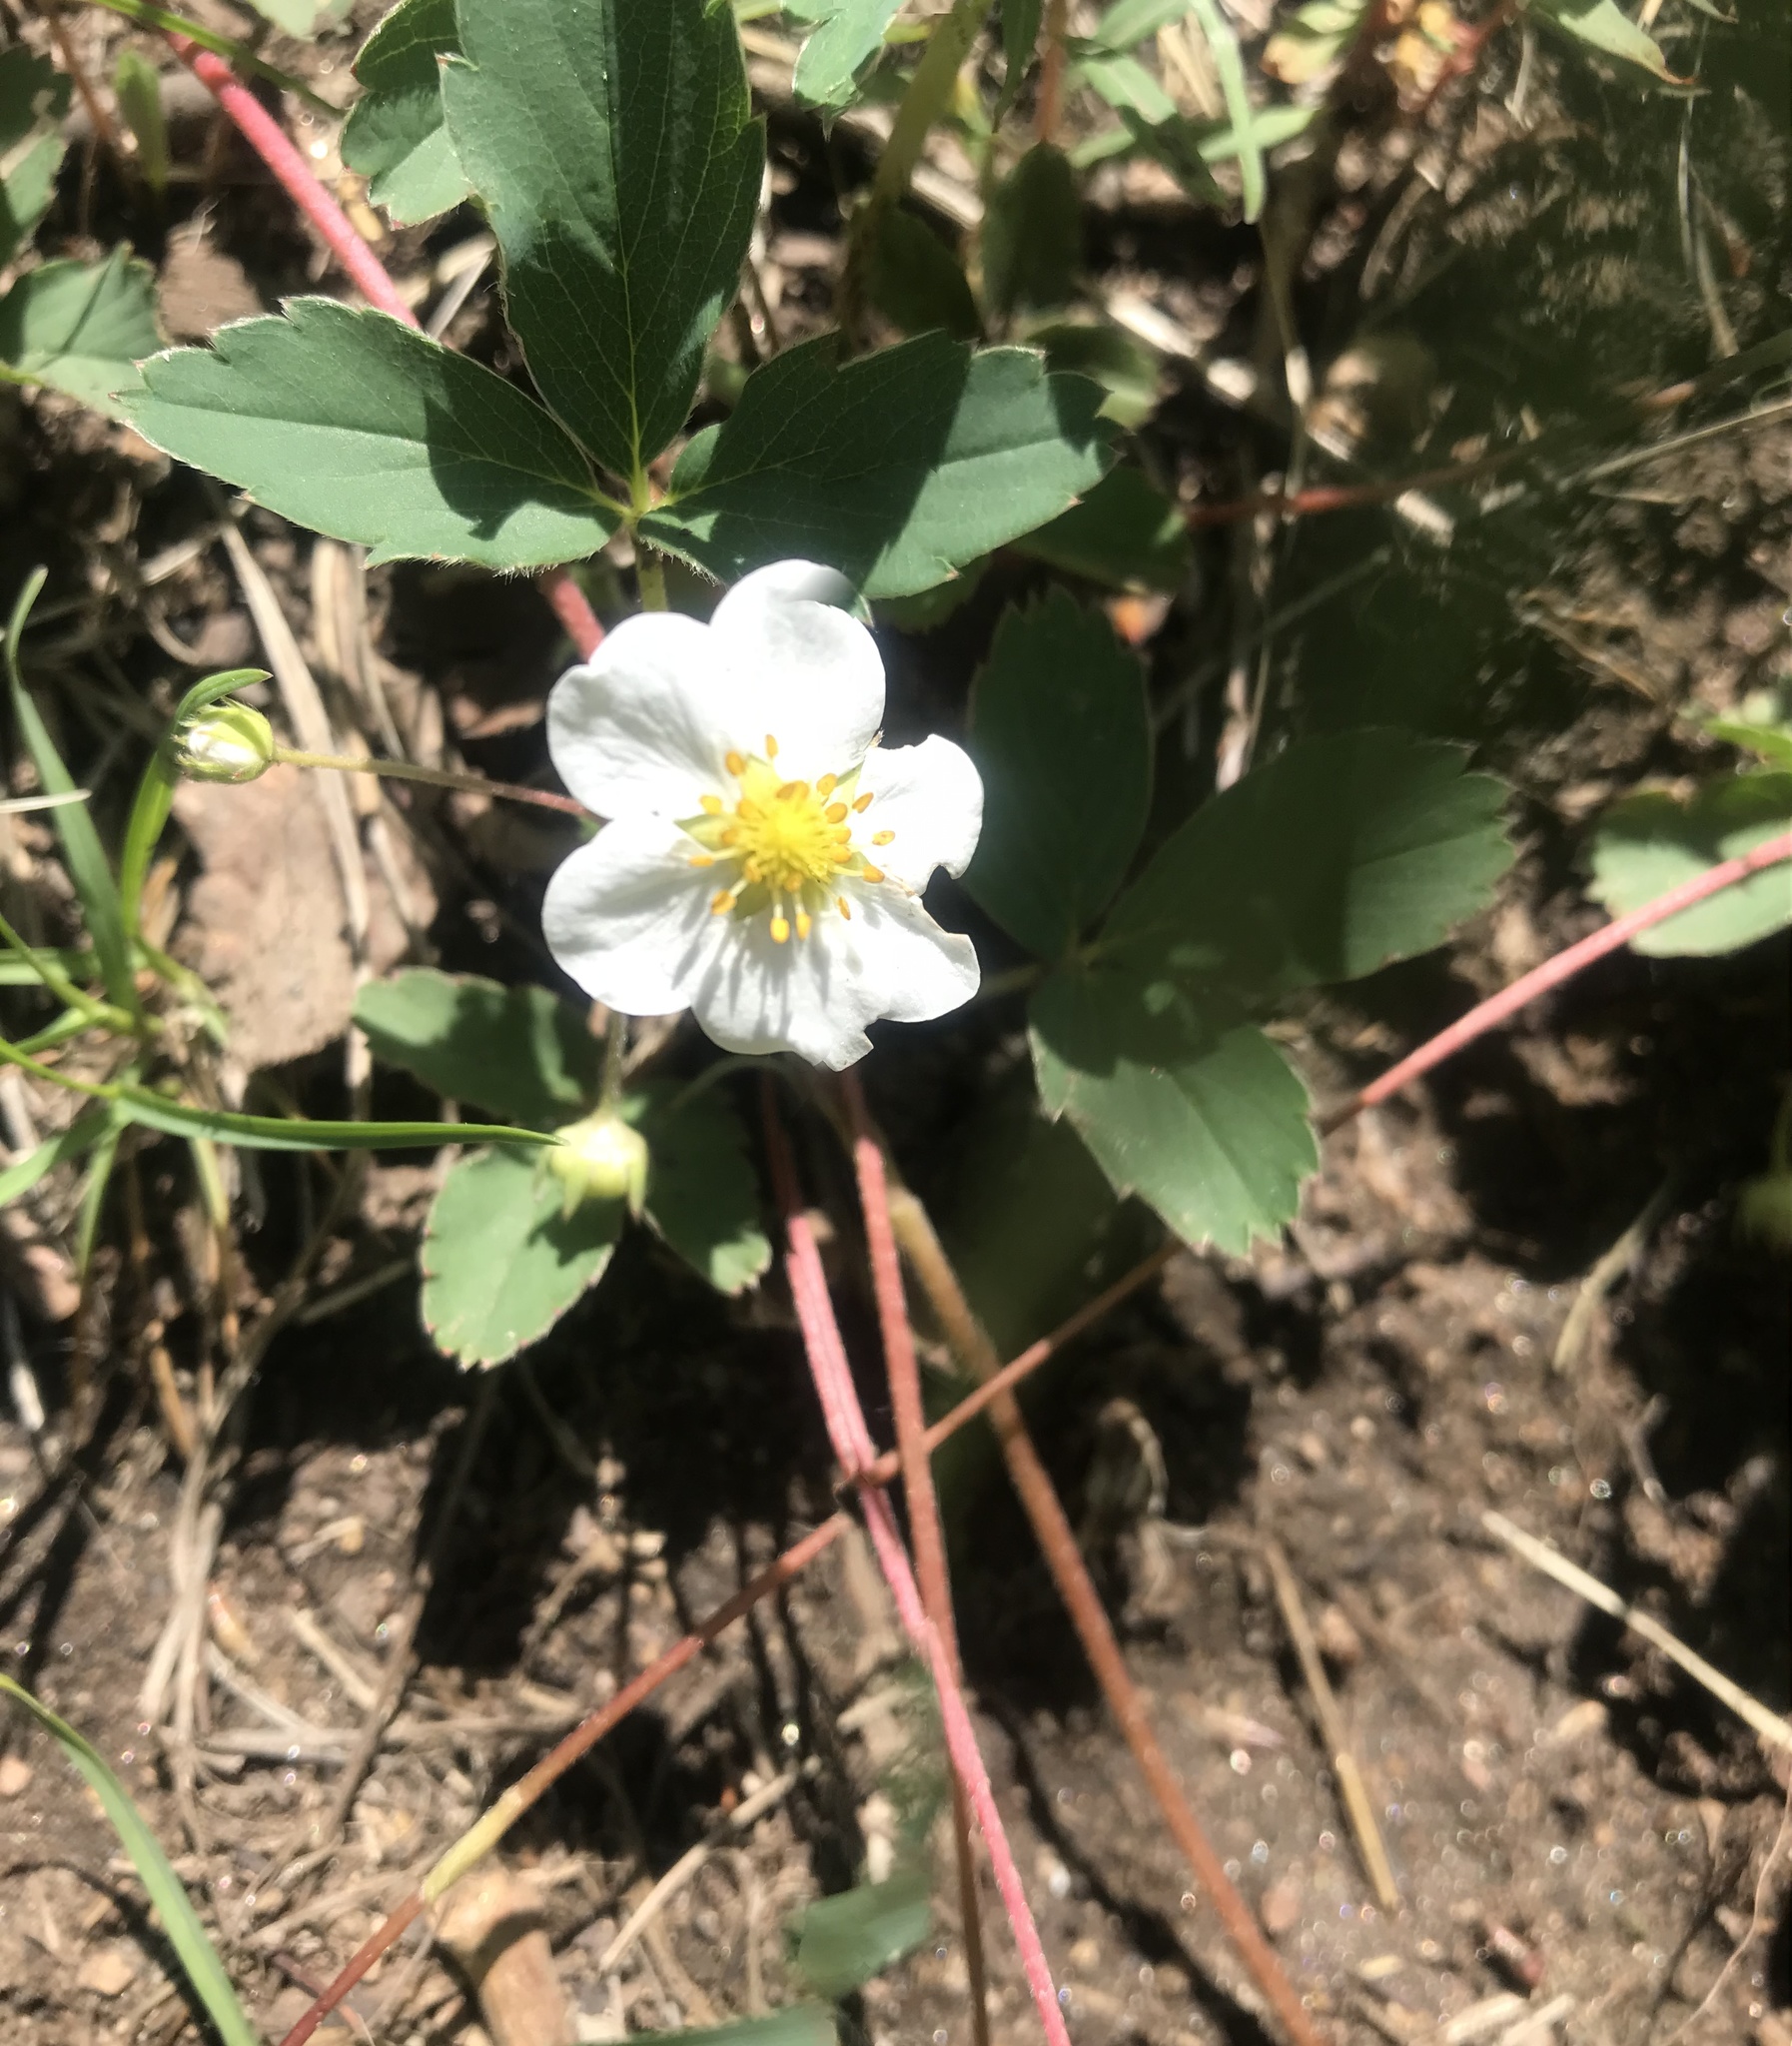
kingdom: Plantae
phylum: Tracheophyta
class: Magnoliopsida
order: Rosales
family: Rosaceae
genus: Fragaria
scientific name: Fragaria virginiana
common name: Thickleaved wild strawberry
